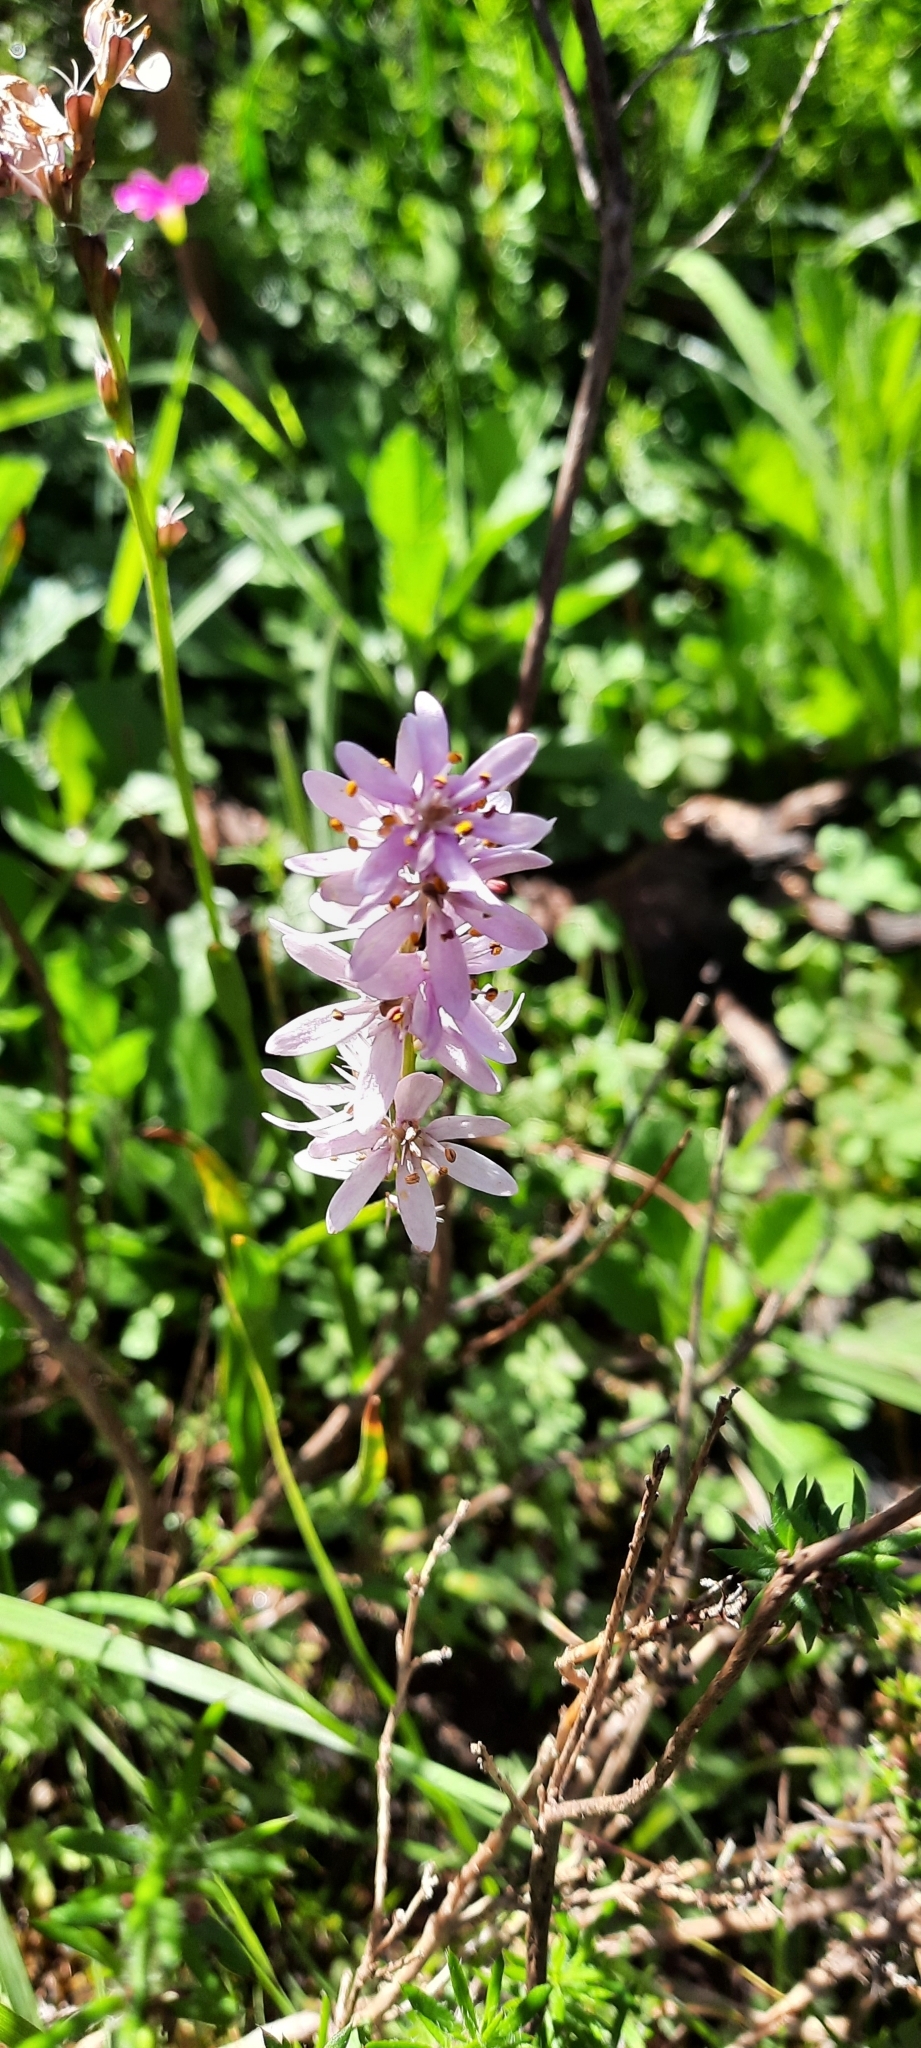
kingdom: Plantae
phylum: Tracheophyta
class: Liliopsida
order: Liliales
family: Colchicaceae
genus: Wurmbea
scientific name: Wurmbea punctata
